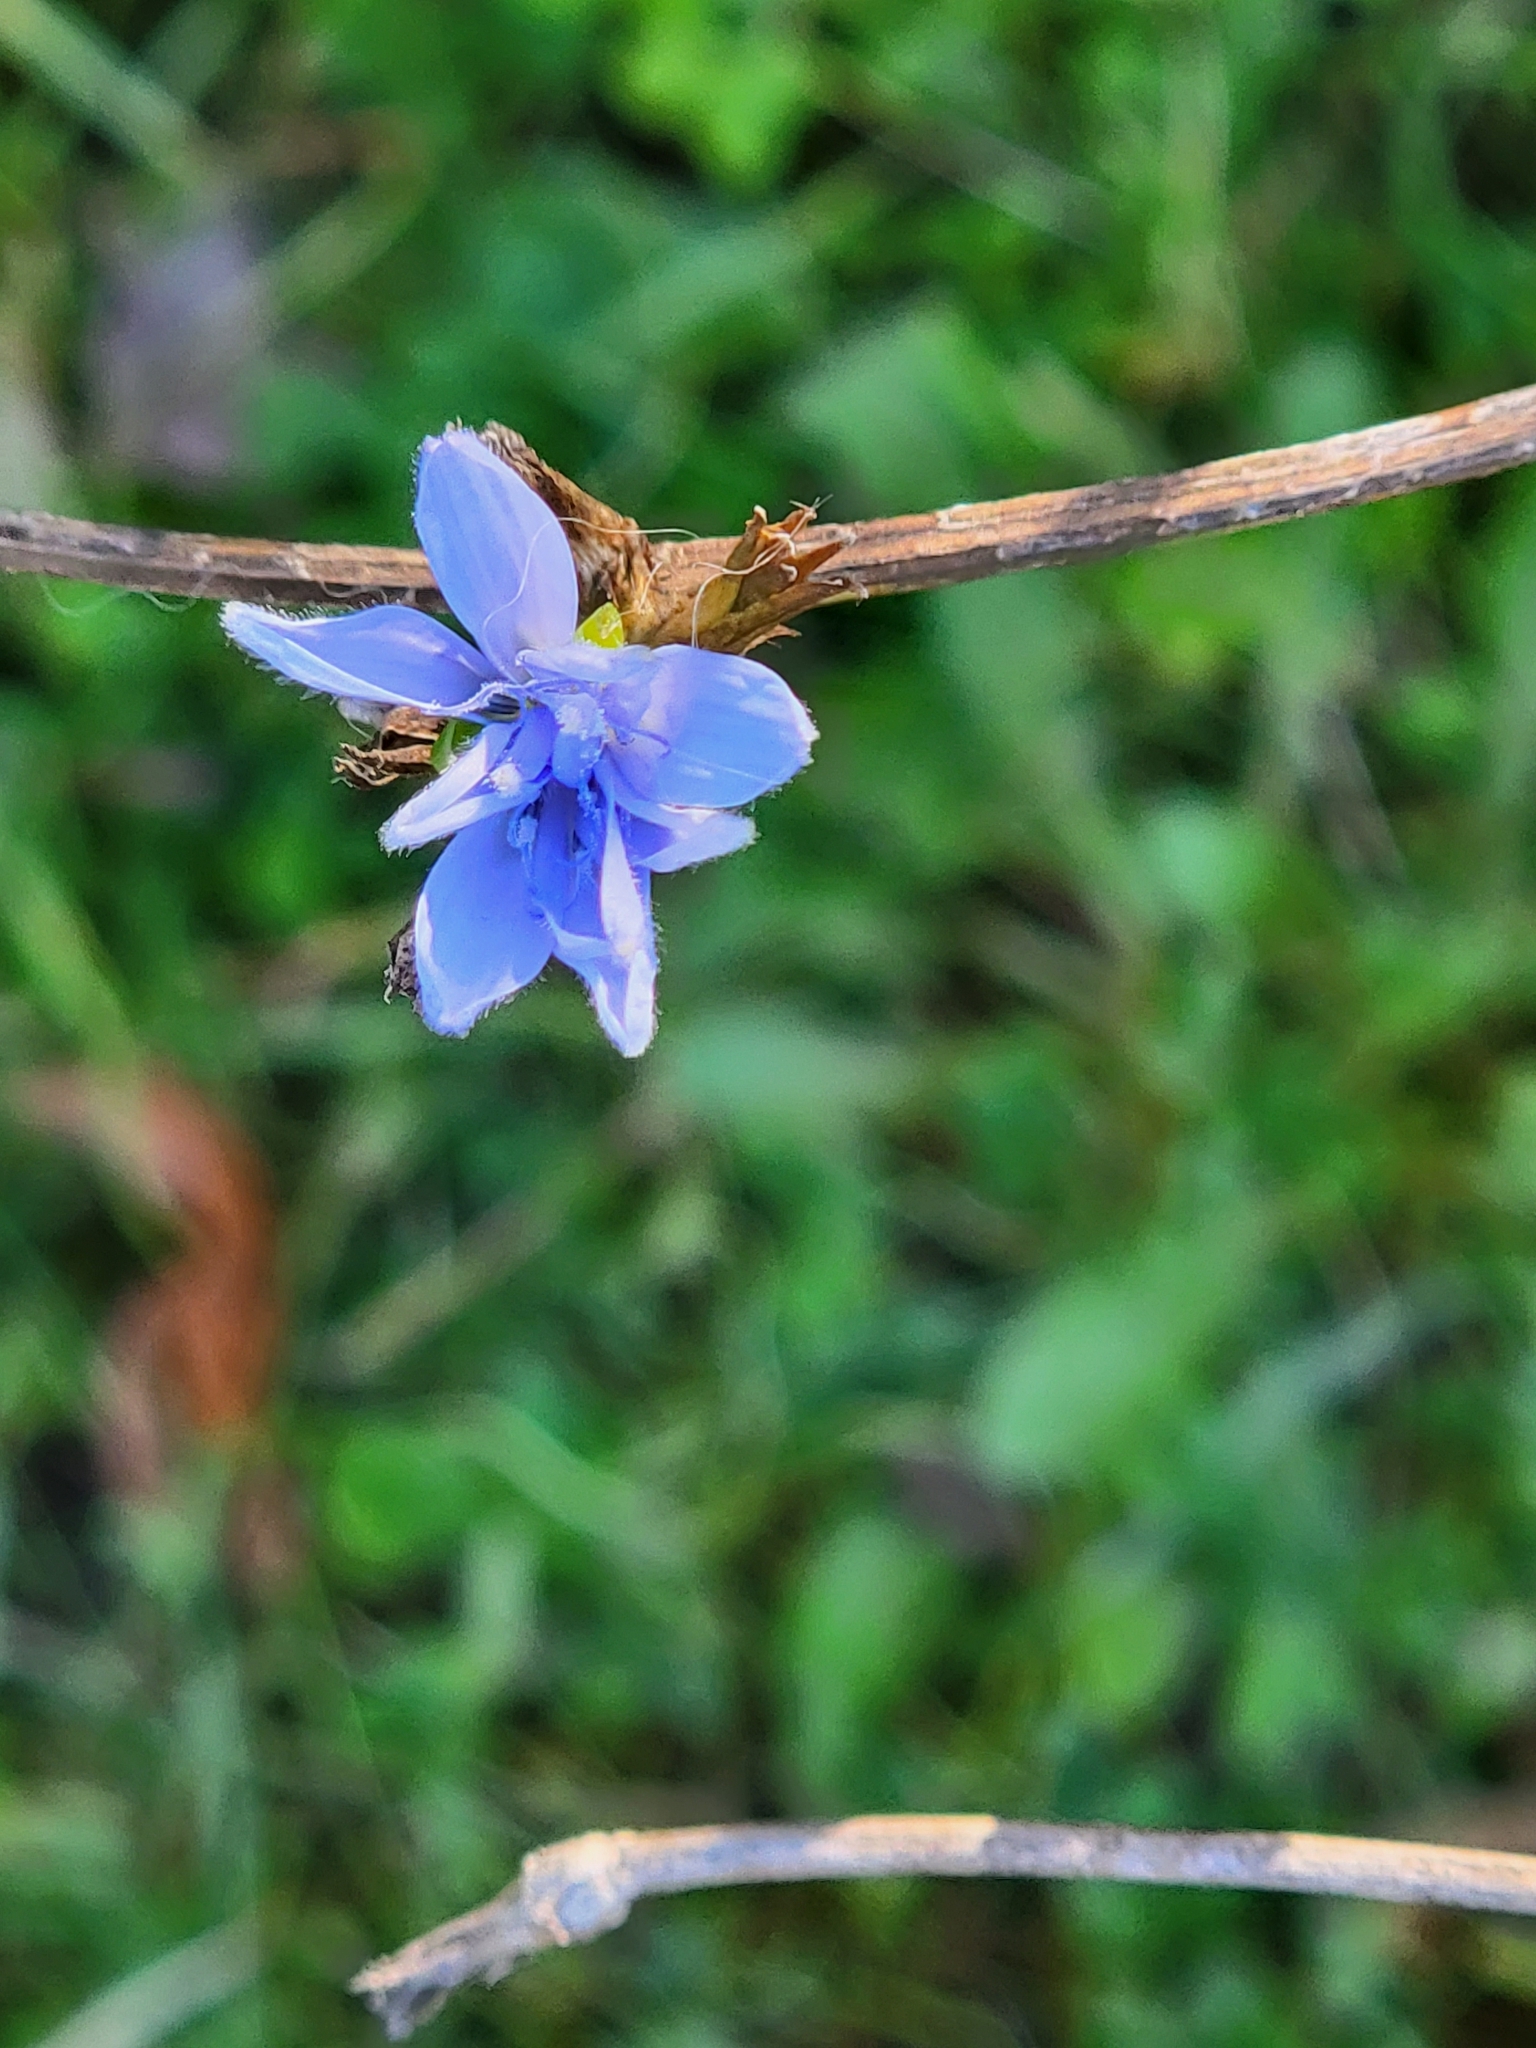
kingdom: Plantae
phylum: Tracheophyta
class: Magnoliopsida
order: Asterales
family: Asteraceae
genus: Cichorium
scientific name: Cichorium intybus
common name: Chicory
